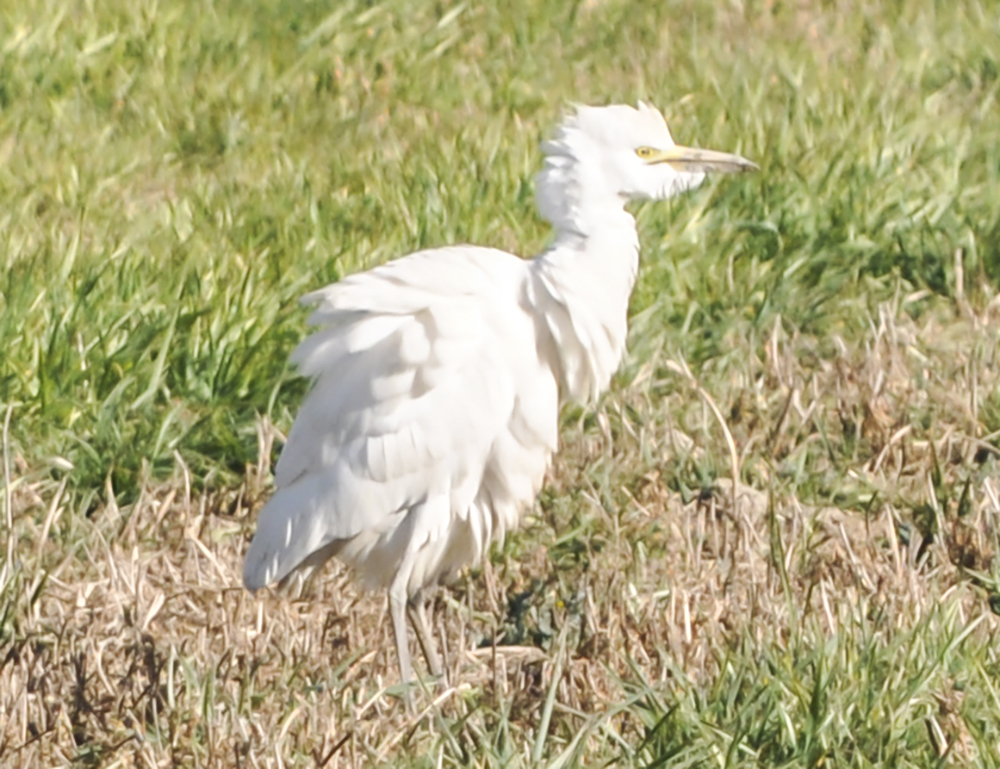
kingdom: Animalia
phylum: Chordata
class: Aves
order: Pelecaniformes
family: Ardeidae
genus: Bubulcus
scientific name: Bubulcus ibis
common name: Cattle egret
